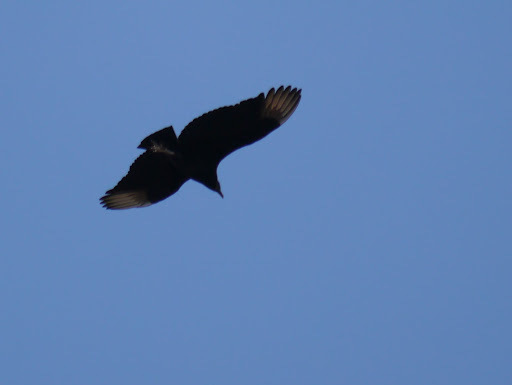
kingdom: Animalia
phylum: Chordata
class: Aves
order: Accipitriformes
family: Cathartidae
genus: Coragyps
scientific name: Coragyps atratus
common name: Black vulture
